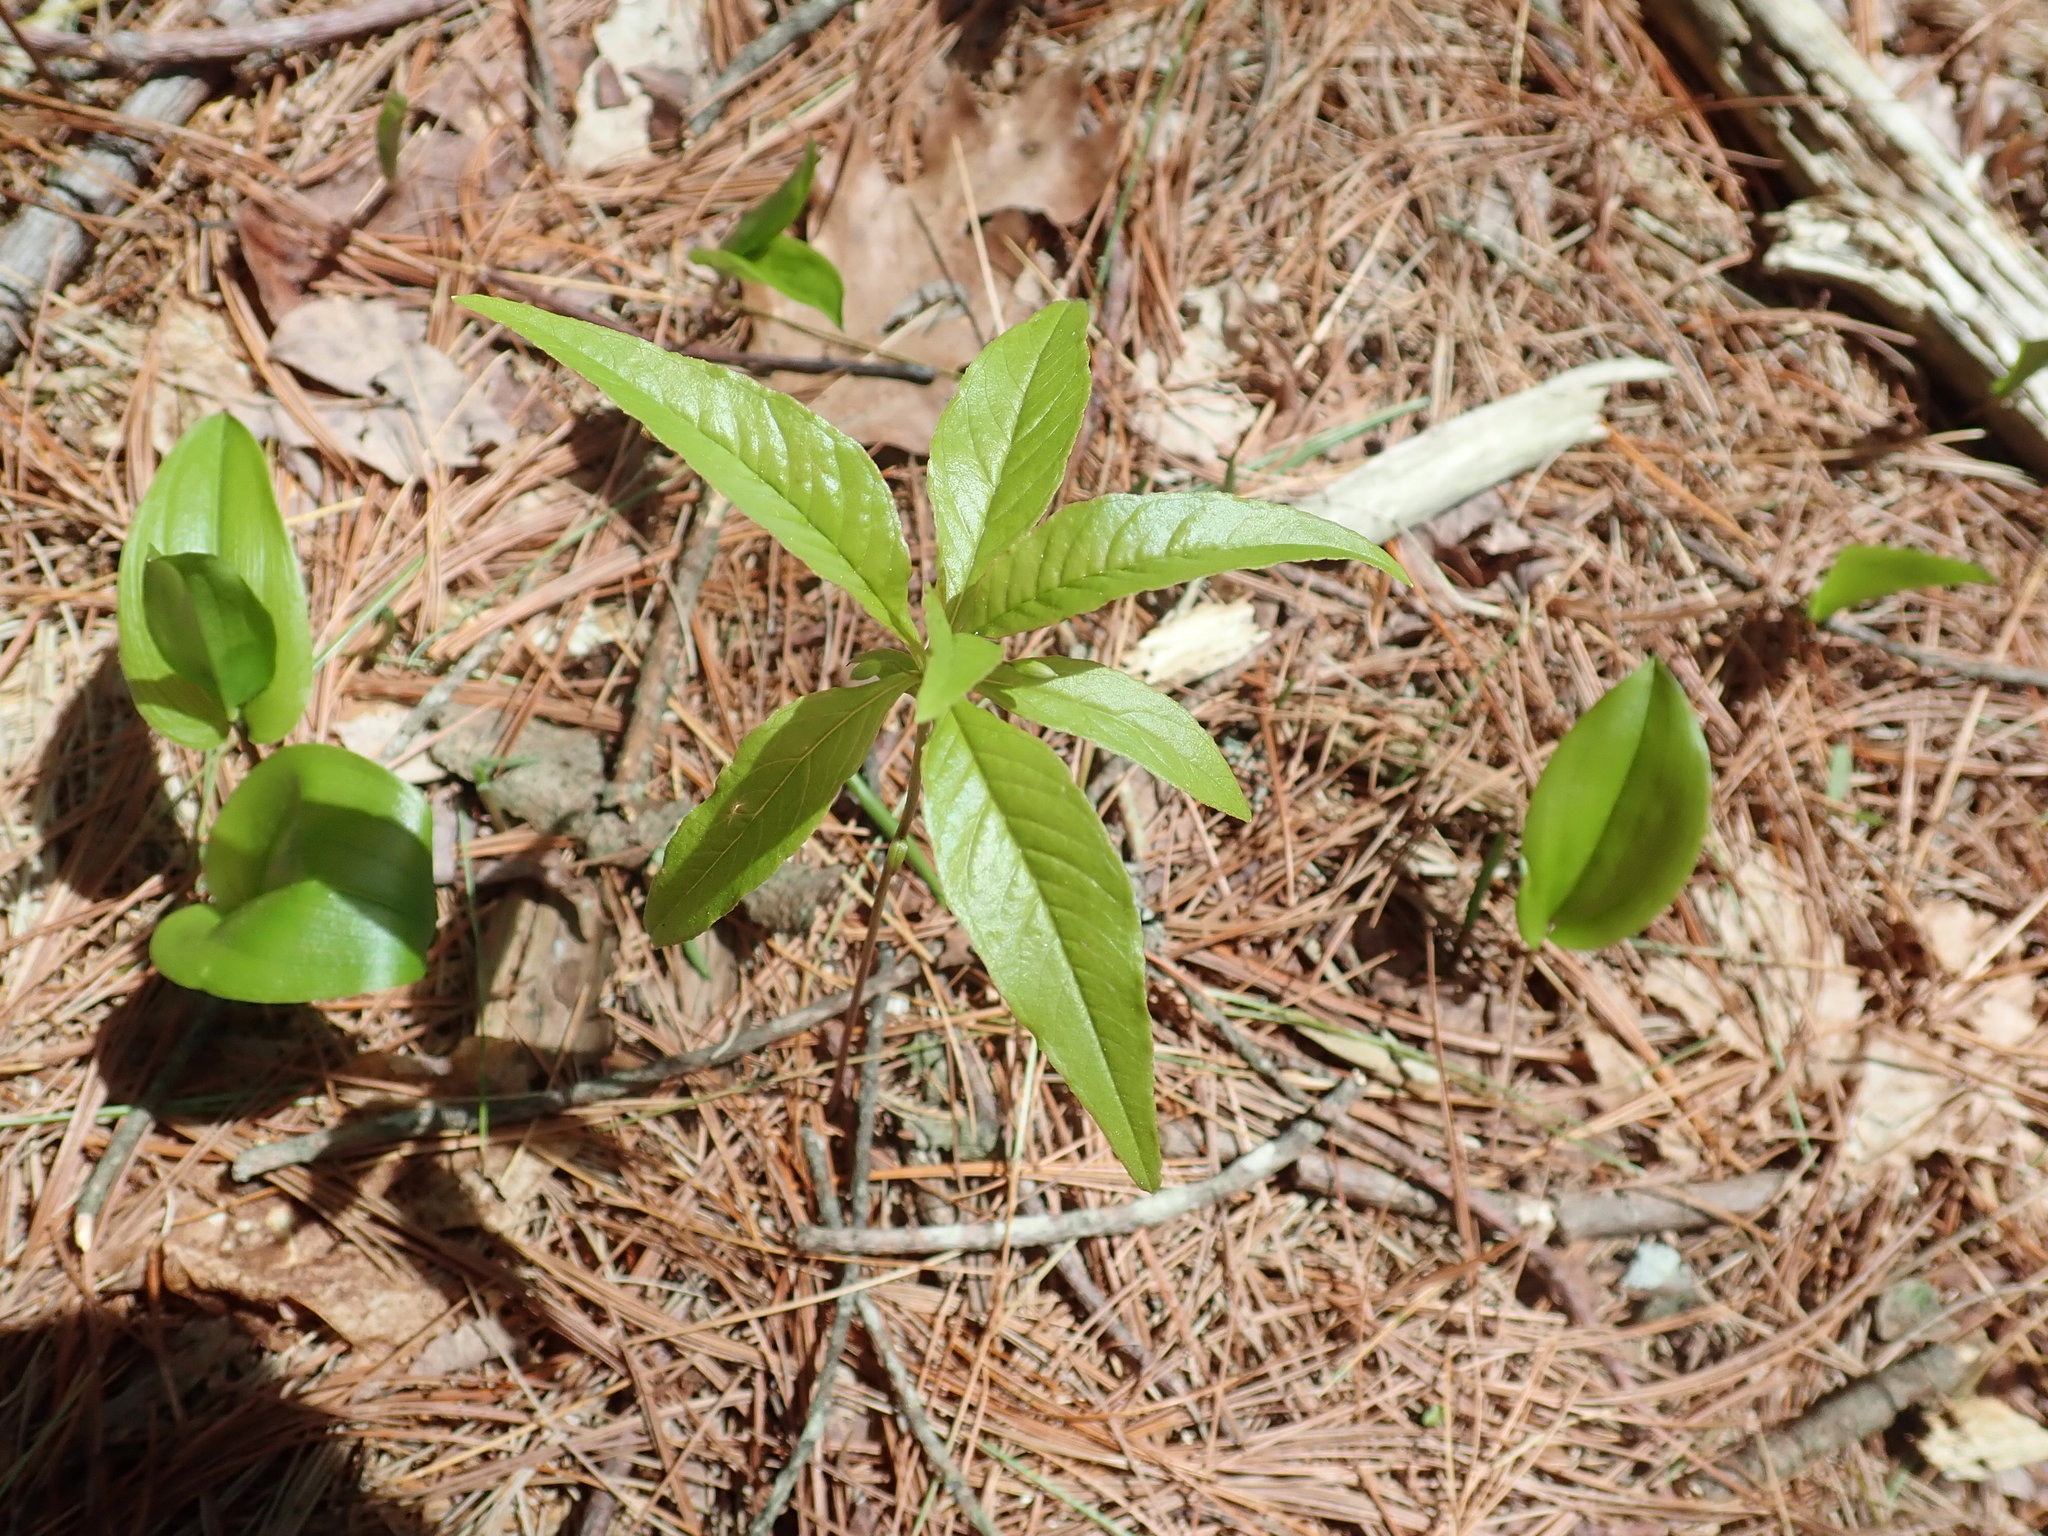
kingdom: Plantae
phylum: Tracheophyta
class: Magnoliopsida
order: Ericales
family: Primulaceae
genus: Lysimachia
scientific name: Lysimachia borealis
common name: American starflower
